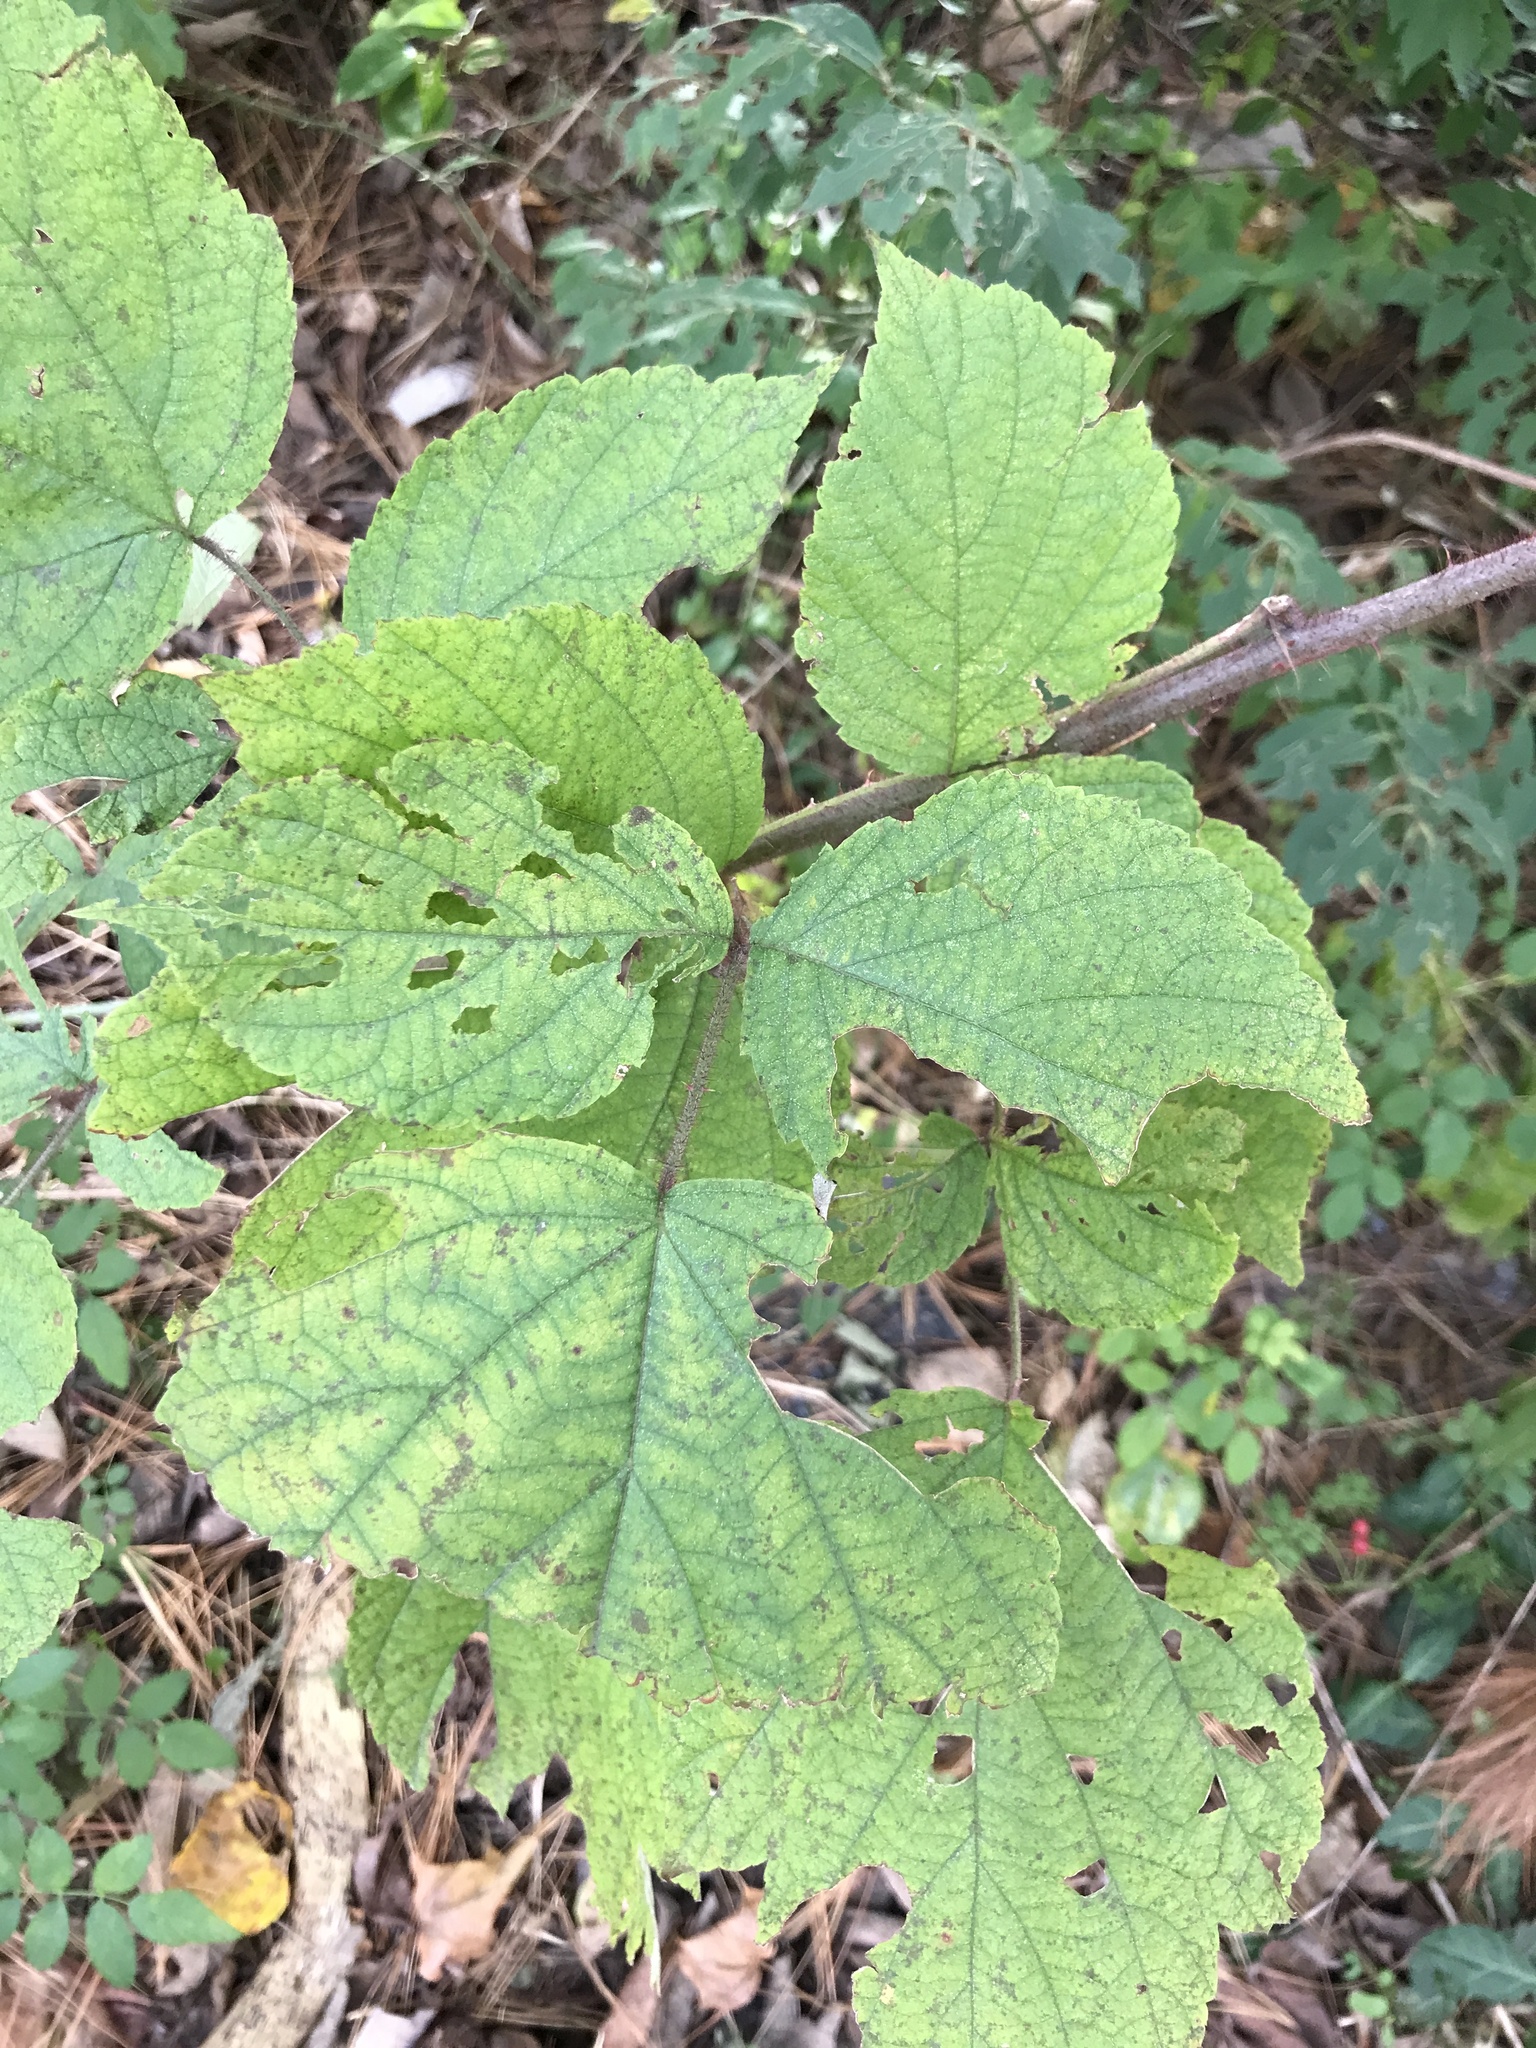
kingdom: Plantae
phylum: Tracheophyta
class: Magnoliopsida
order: Rosales
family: Rosaceae
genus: Rubus
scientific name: Rubus phoenicolasius
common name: Japanese wineberry
